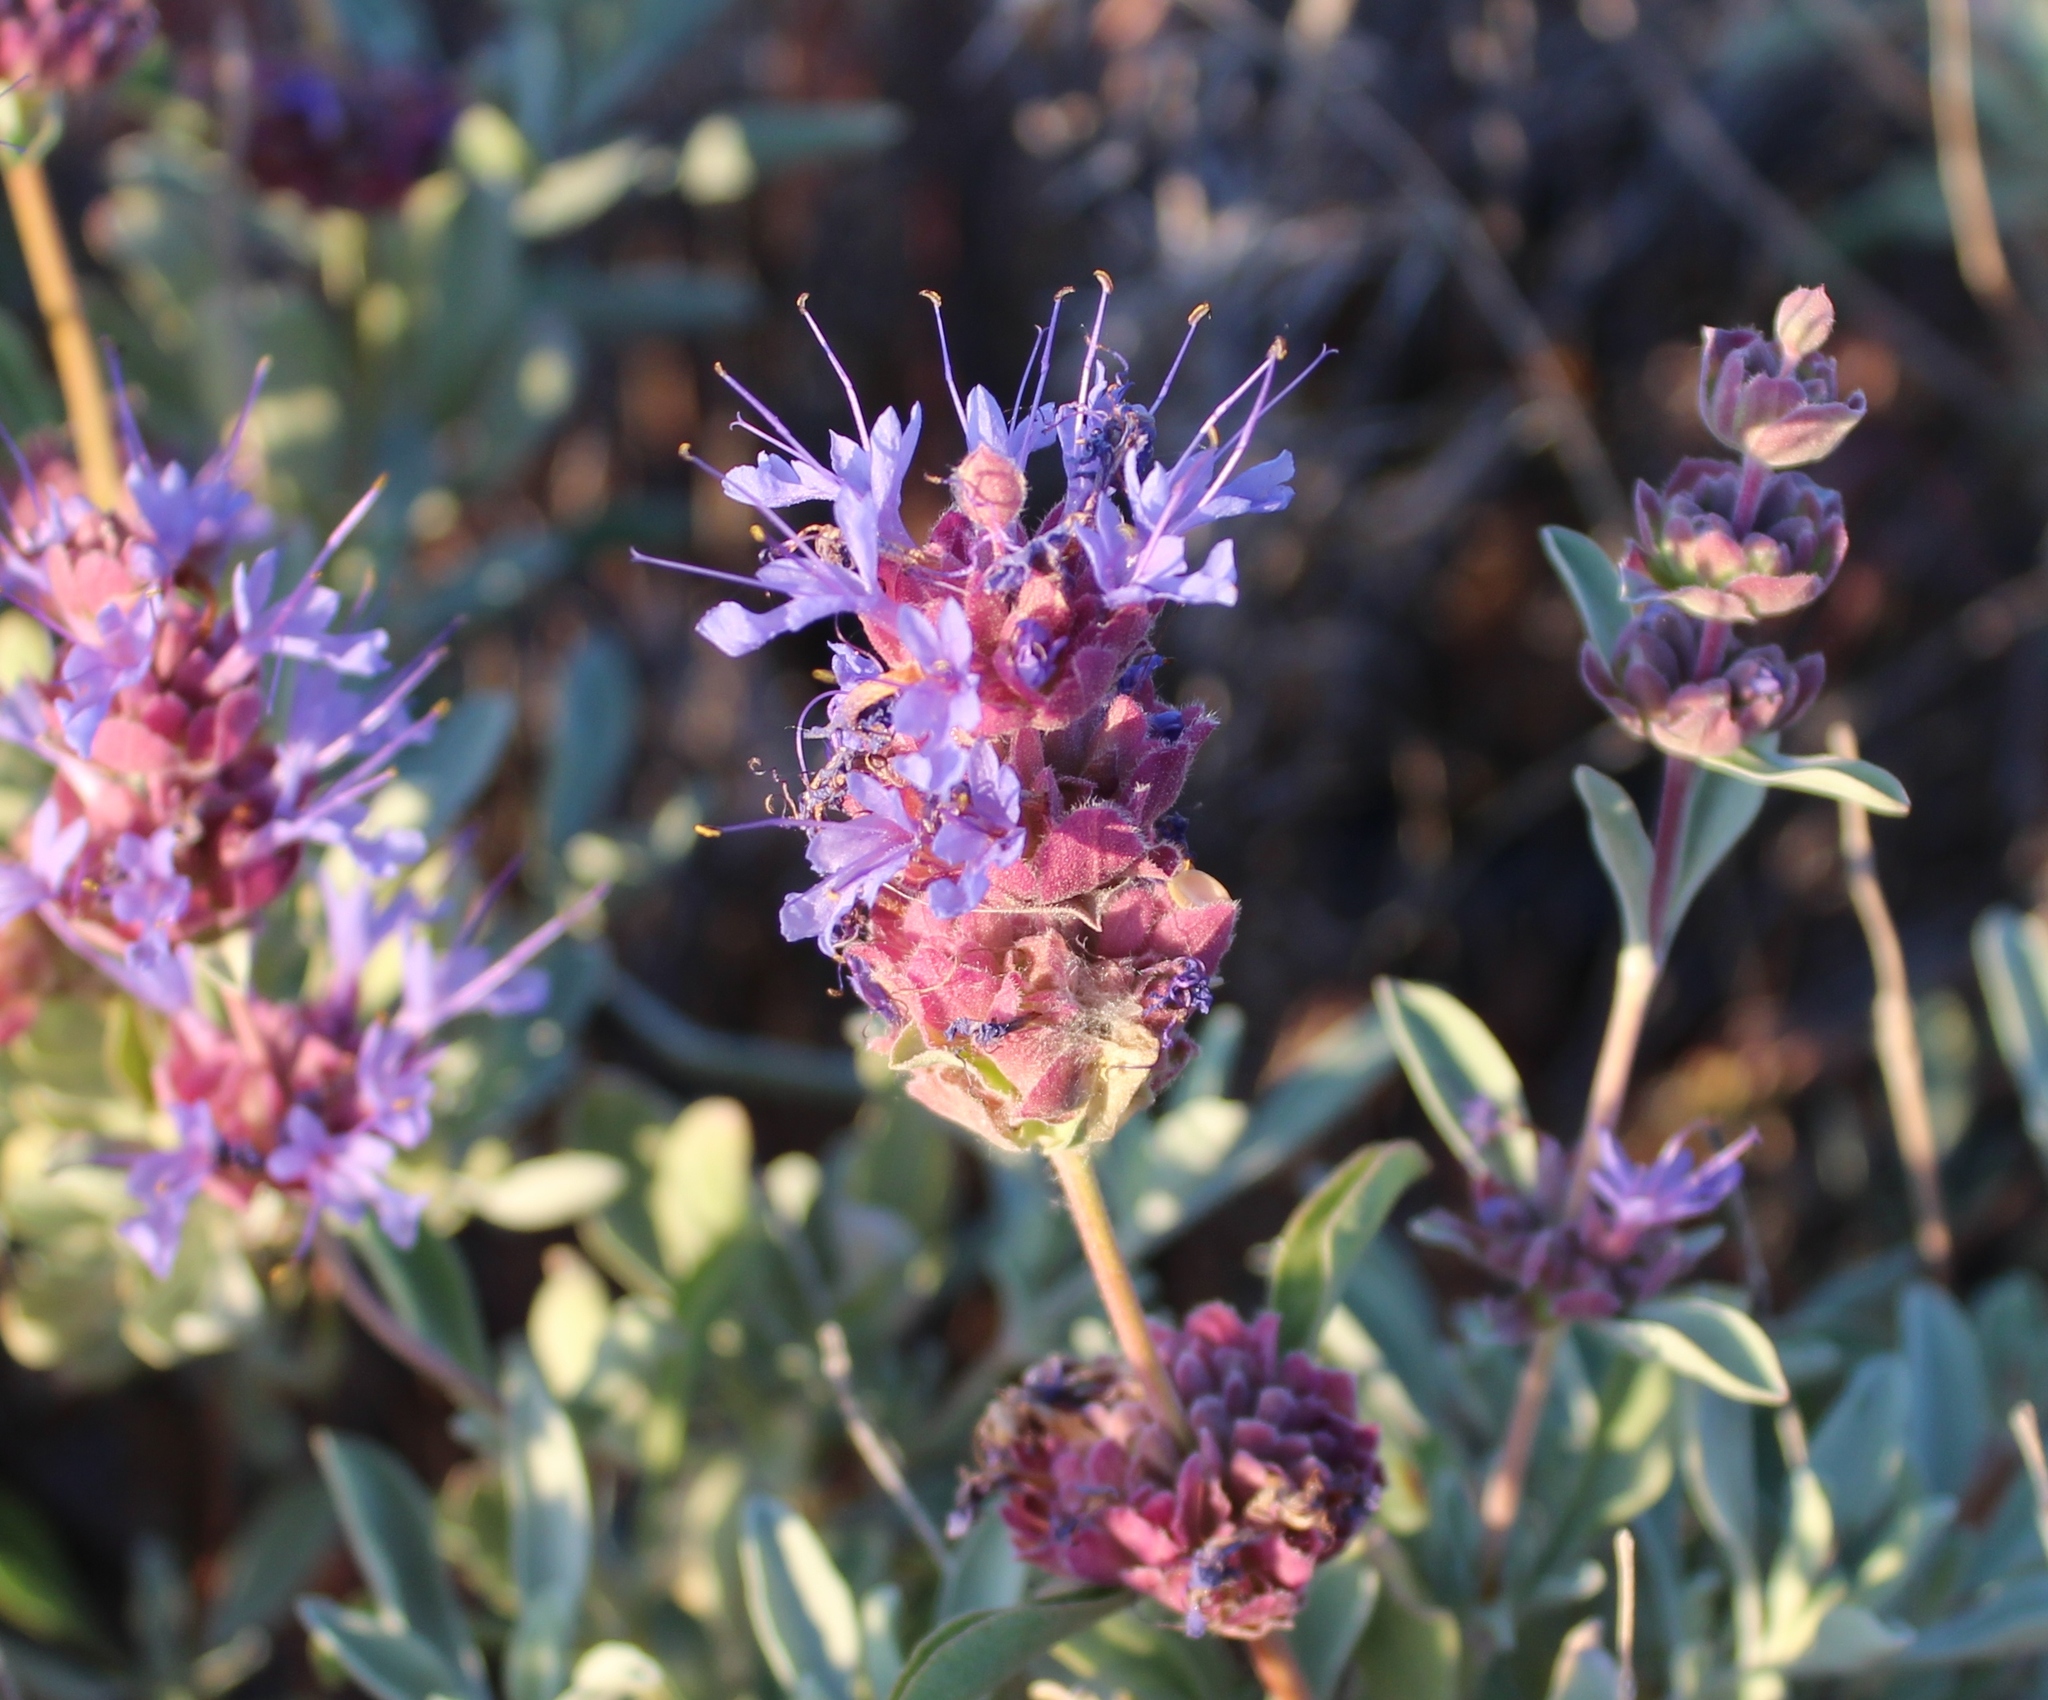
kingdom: Plantae
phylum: Tracheophyta
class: Magnoliopsida
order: Lamiales
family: Lamiaceae
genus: Salvia
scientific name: Salvia dorrii
